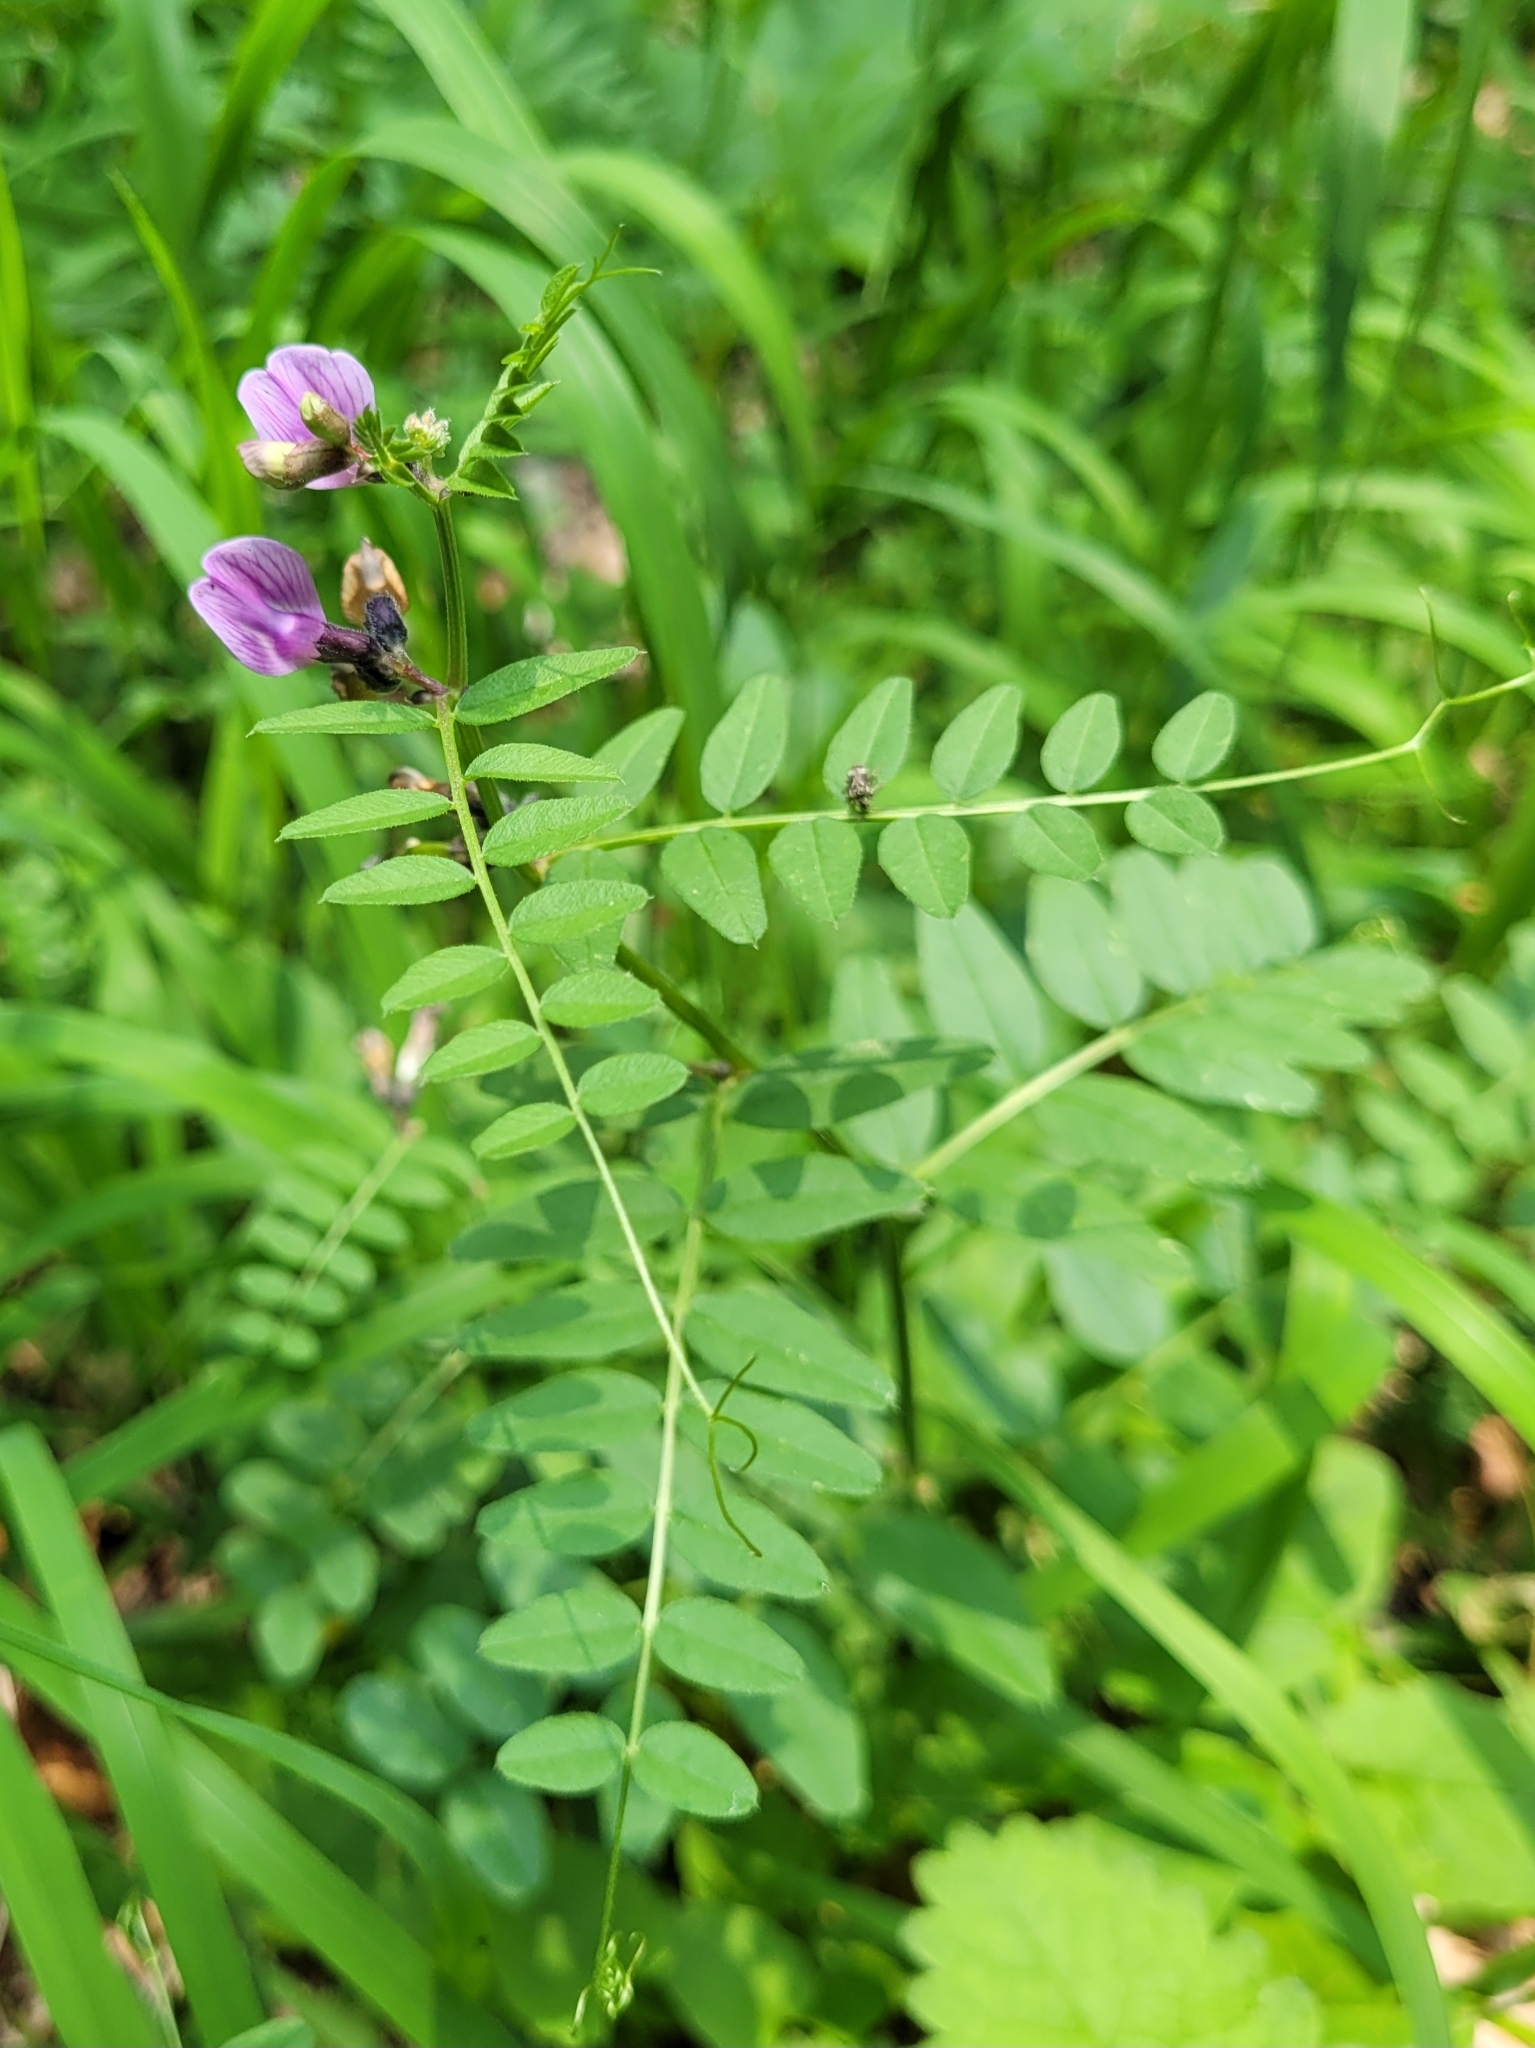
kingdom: Plantae
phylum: Tracheophyta
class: Magnoliopsida
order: Fabales
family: Fabaceae
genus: Vicia
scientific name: Vicia sepium
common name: Bush vetch
